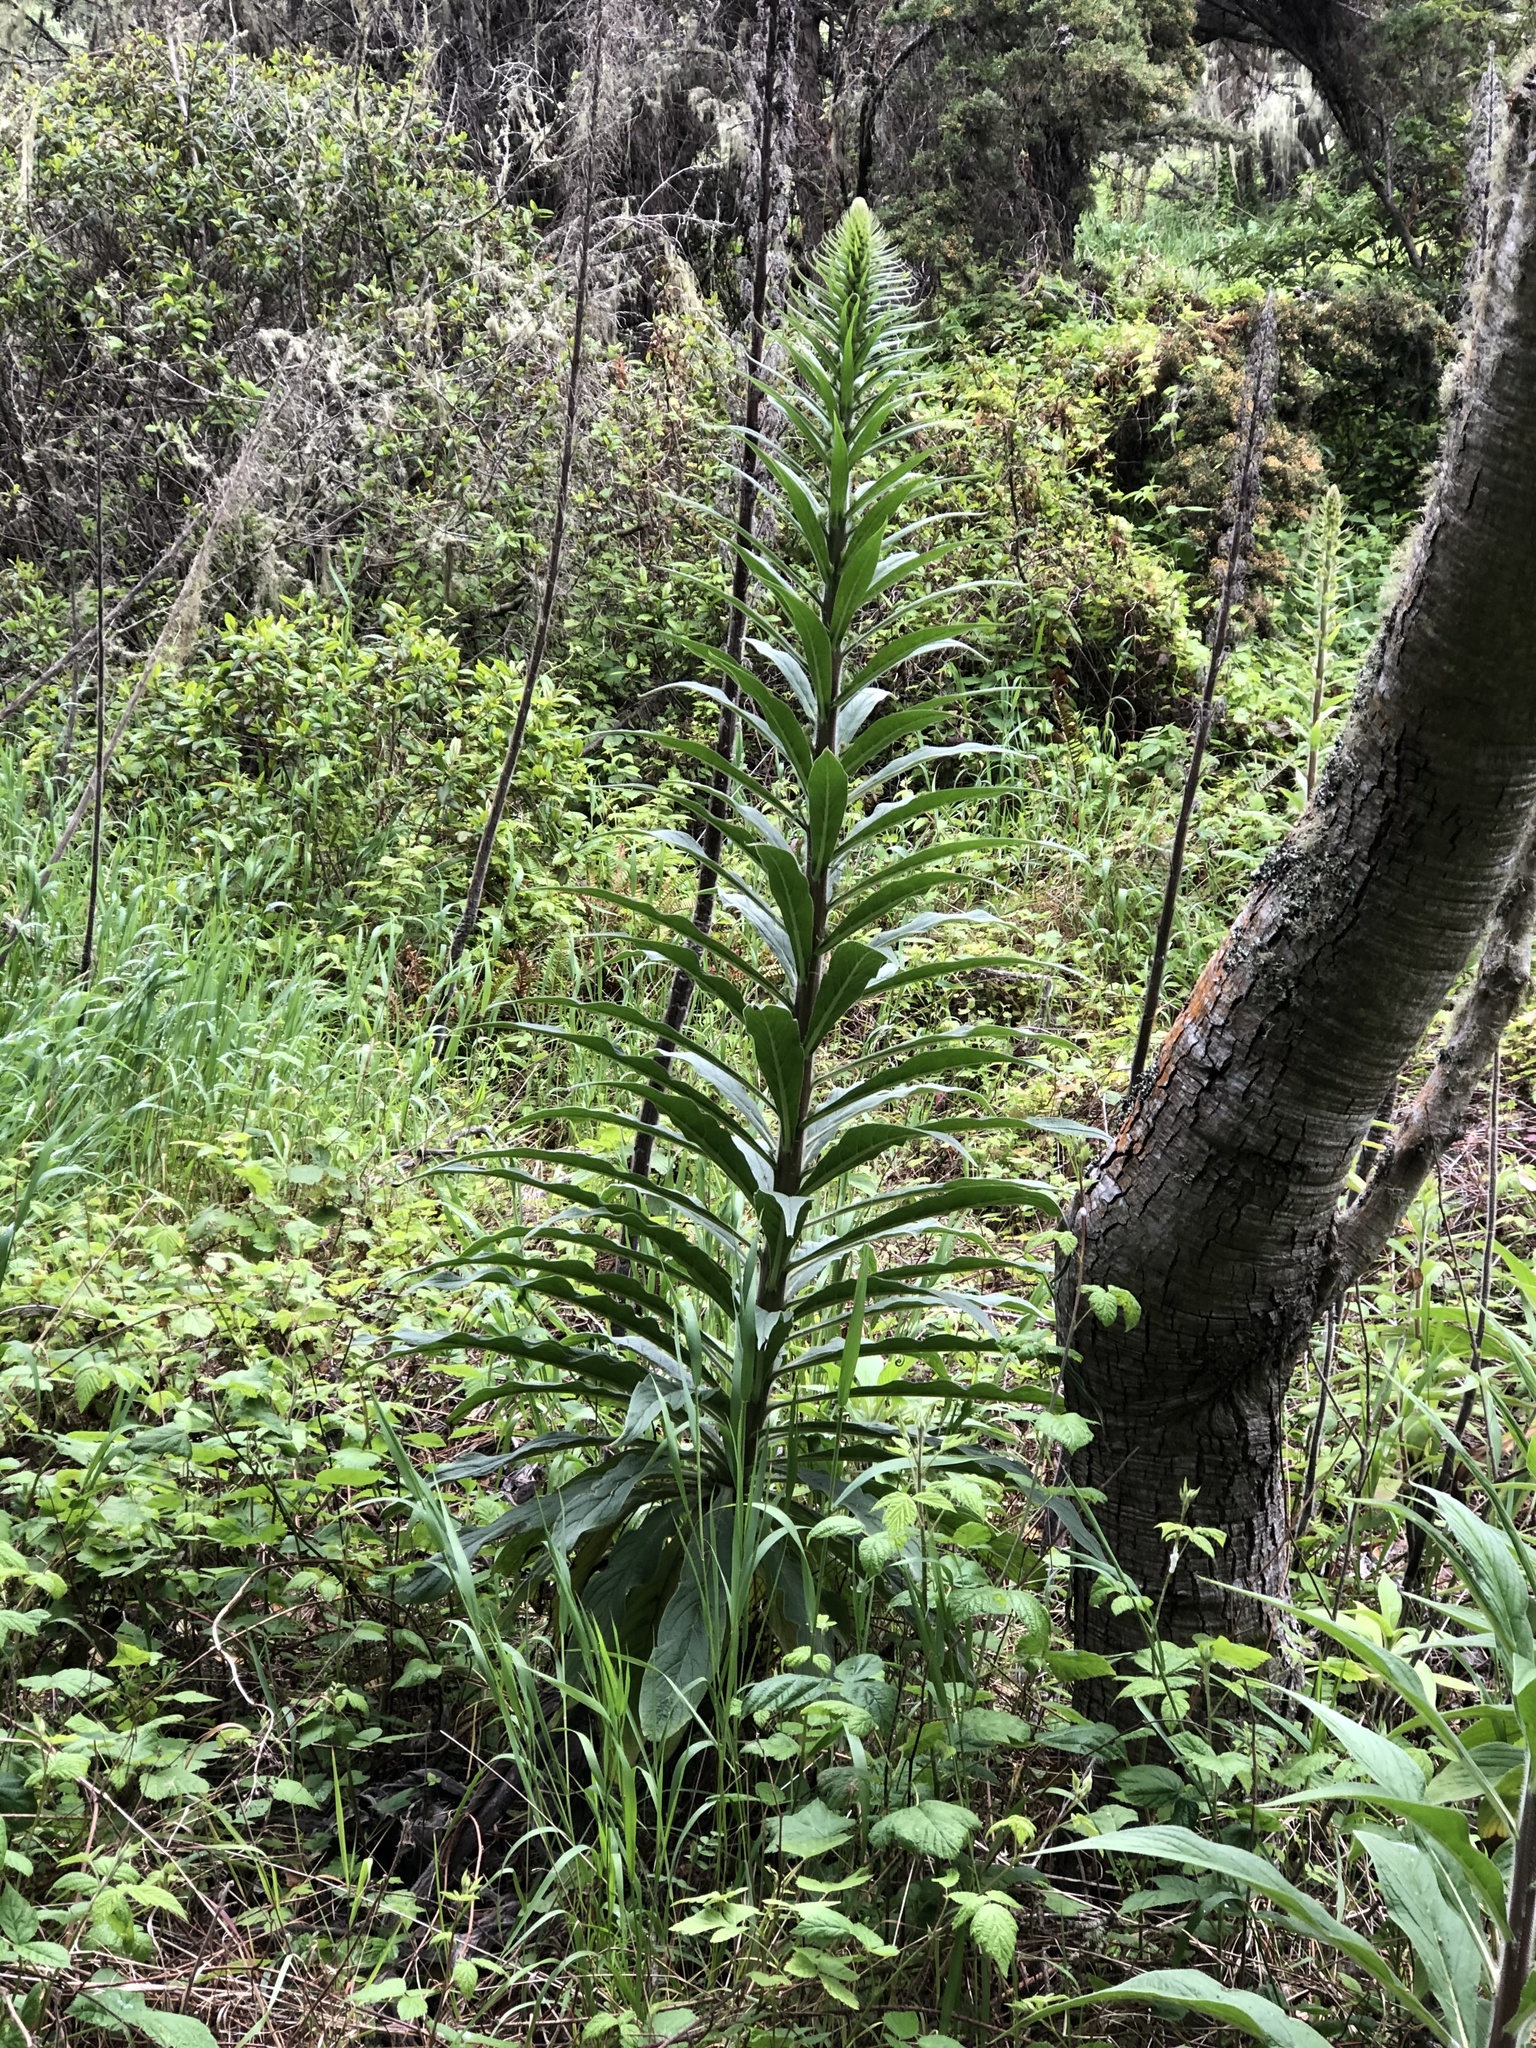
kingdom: Plantae
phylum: Tracheophyta
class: Magnoliopsida
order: Boraginales
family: Boraginaceae
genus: Echium
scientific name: Echium pininana
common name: Giant viper's-bugloss
